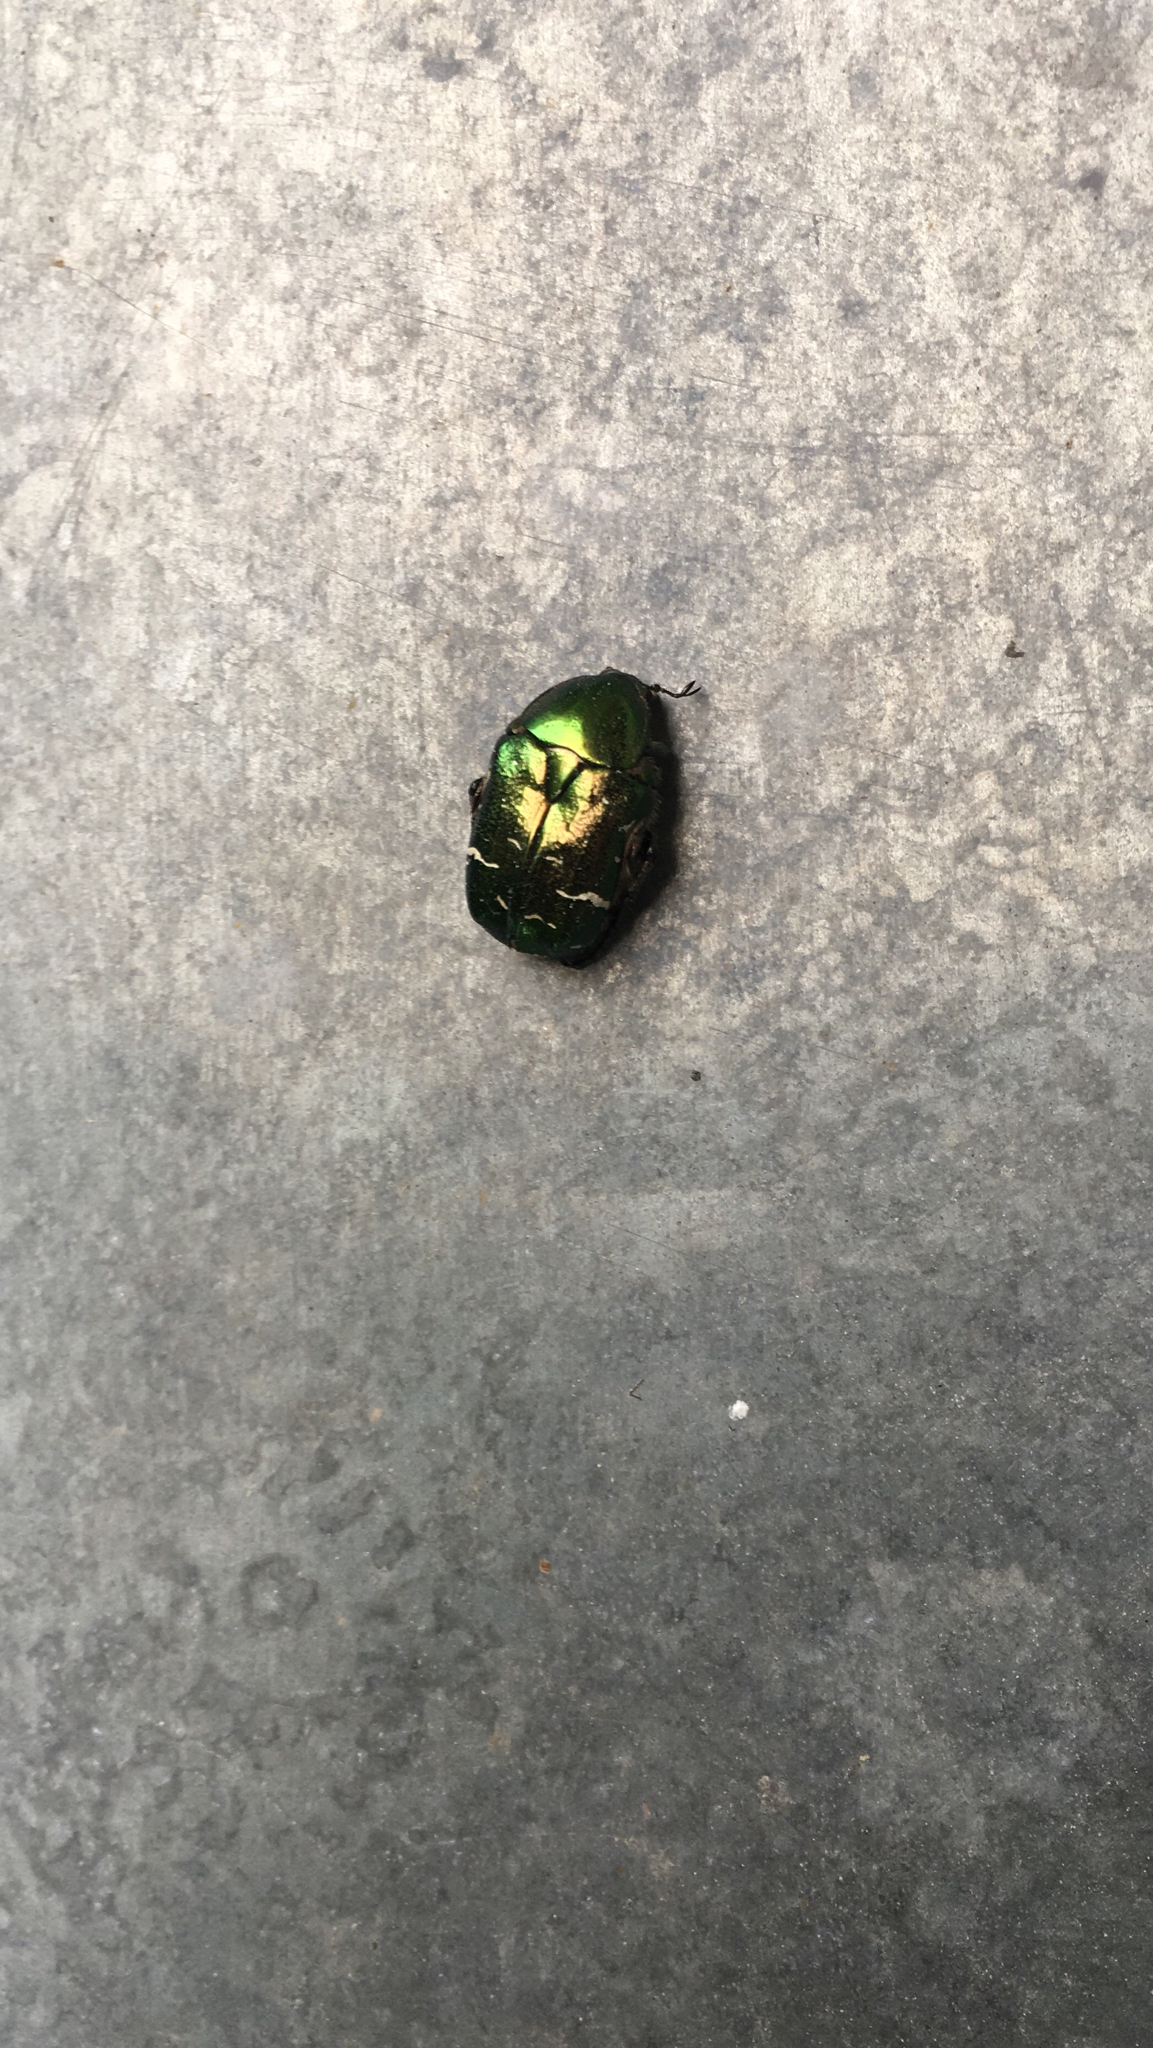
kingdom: Animalia
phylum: Arthropoda
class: Insecta
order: Coleoptera
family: Scarabaeidae
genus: Cetonia
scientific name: Cetonia aurata
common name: Rose chafer
